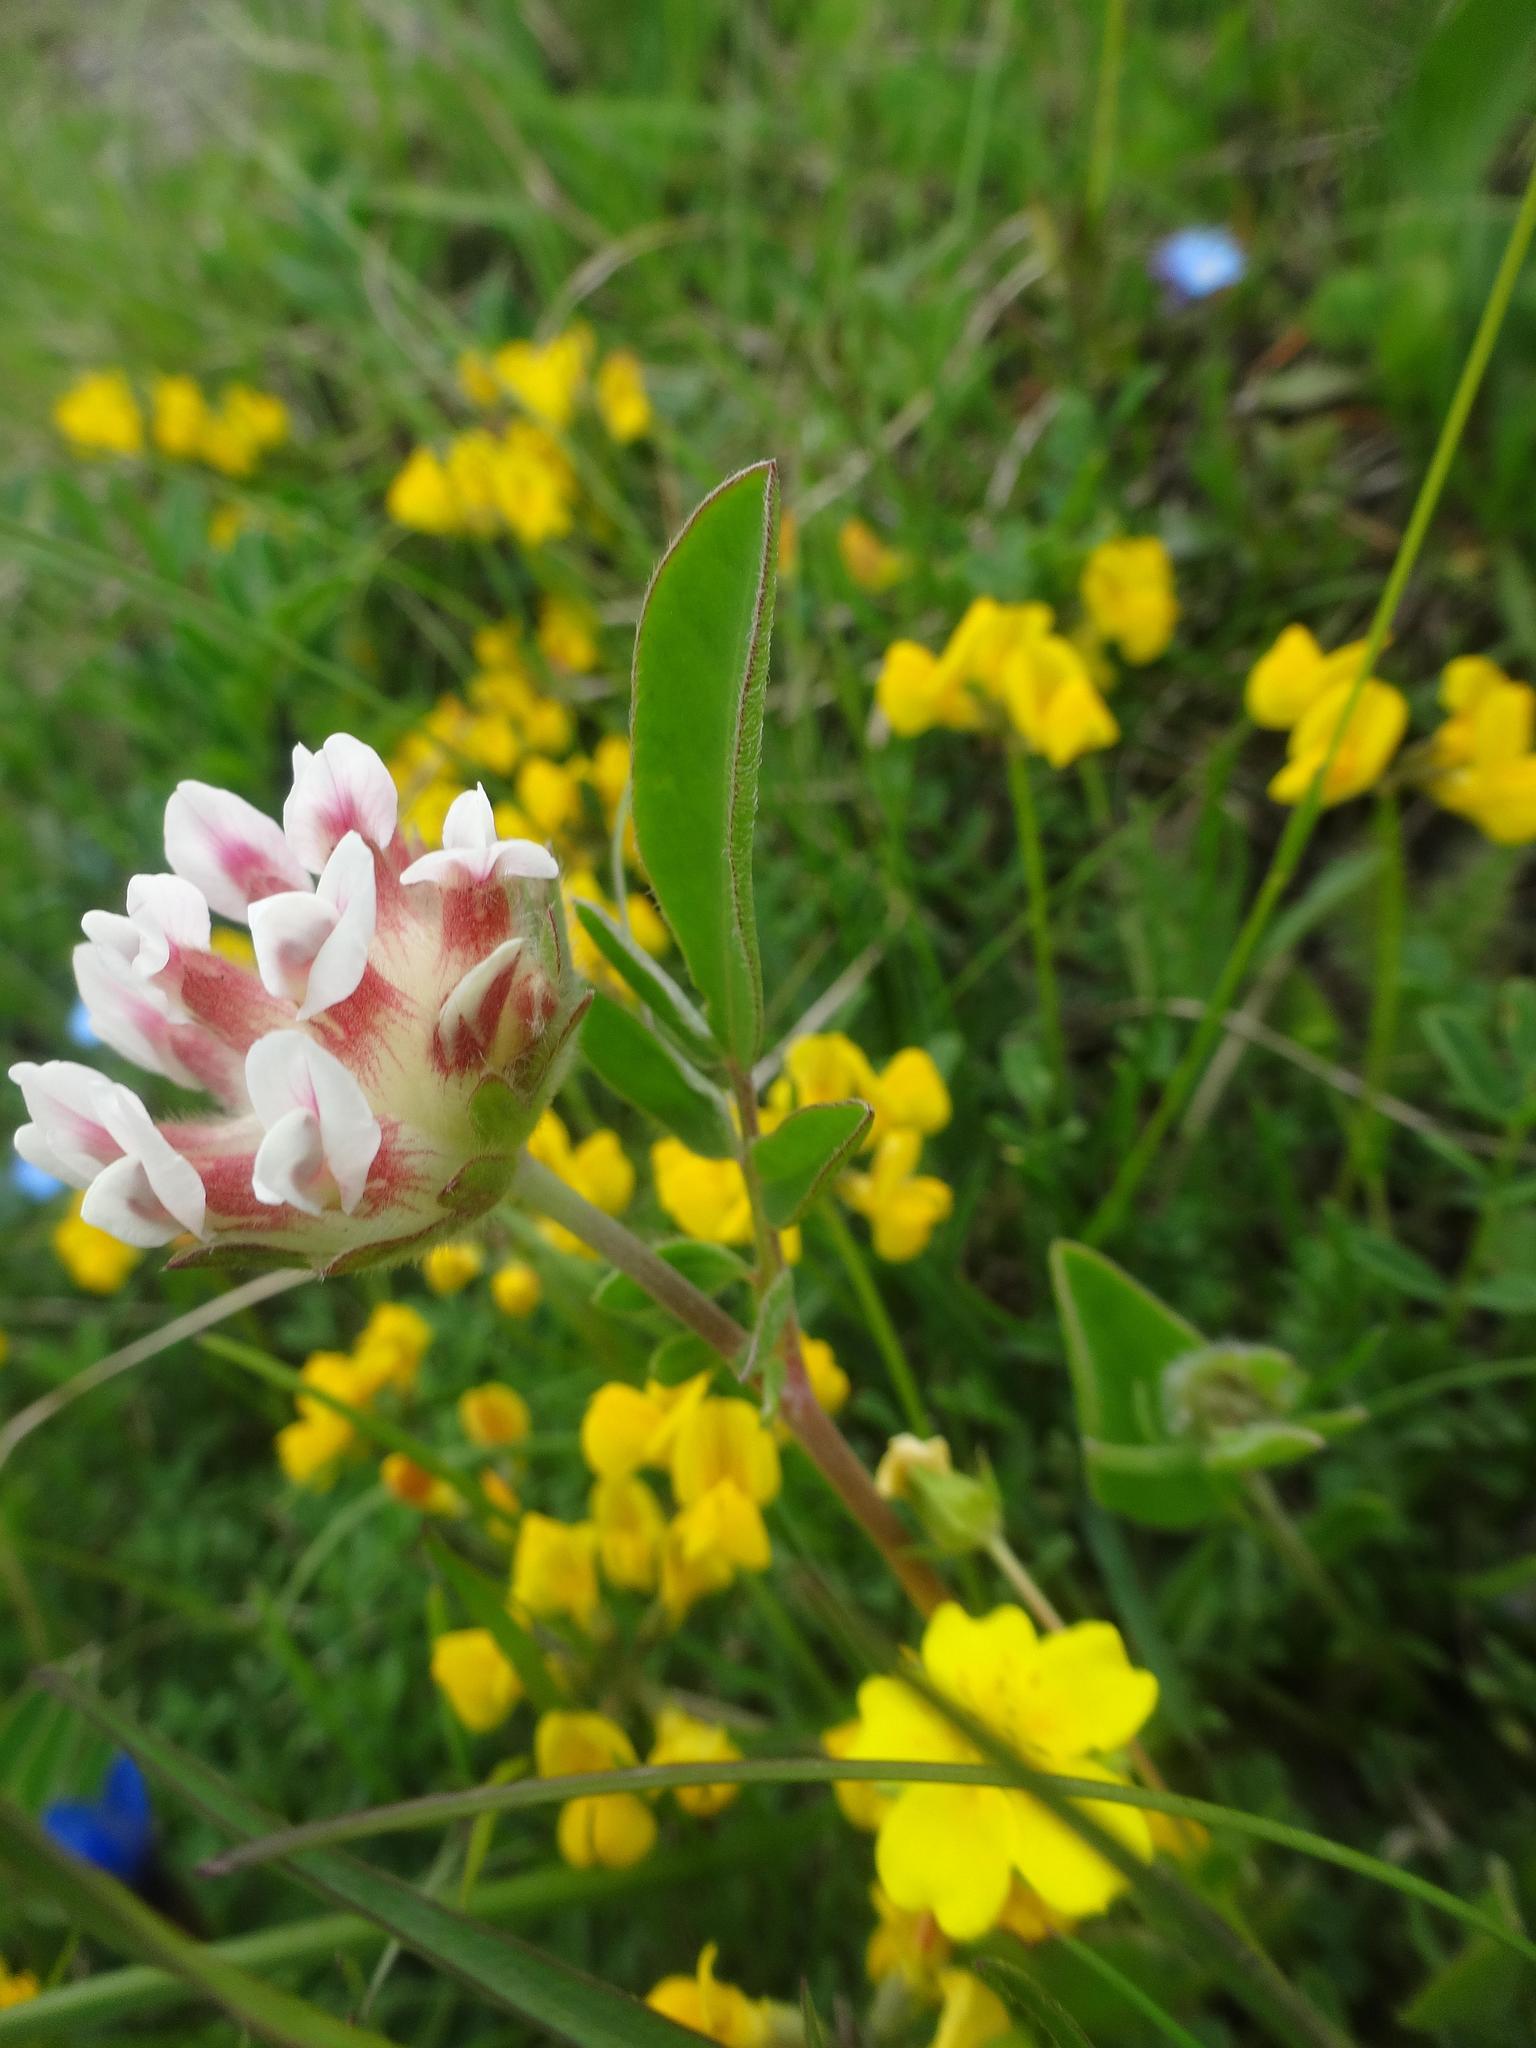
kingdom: Plantae
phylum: Tracheophyta
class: Magnoliopsida
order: Fabales
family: Fabaceae
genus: Anthyllis
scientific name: Anthyllis vulneraria
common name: Kidney vetch
